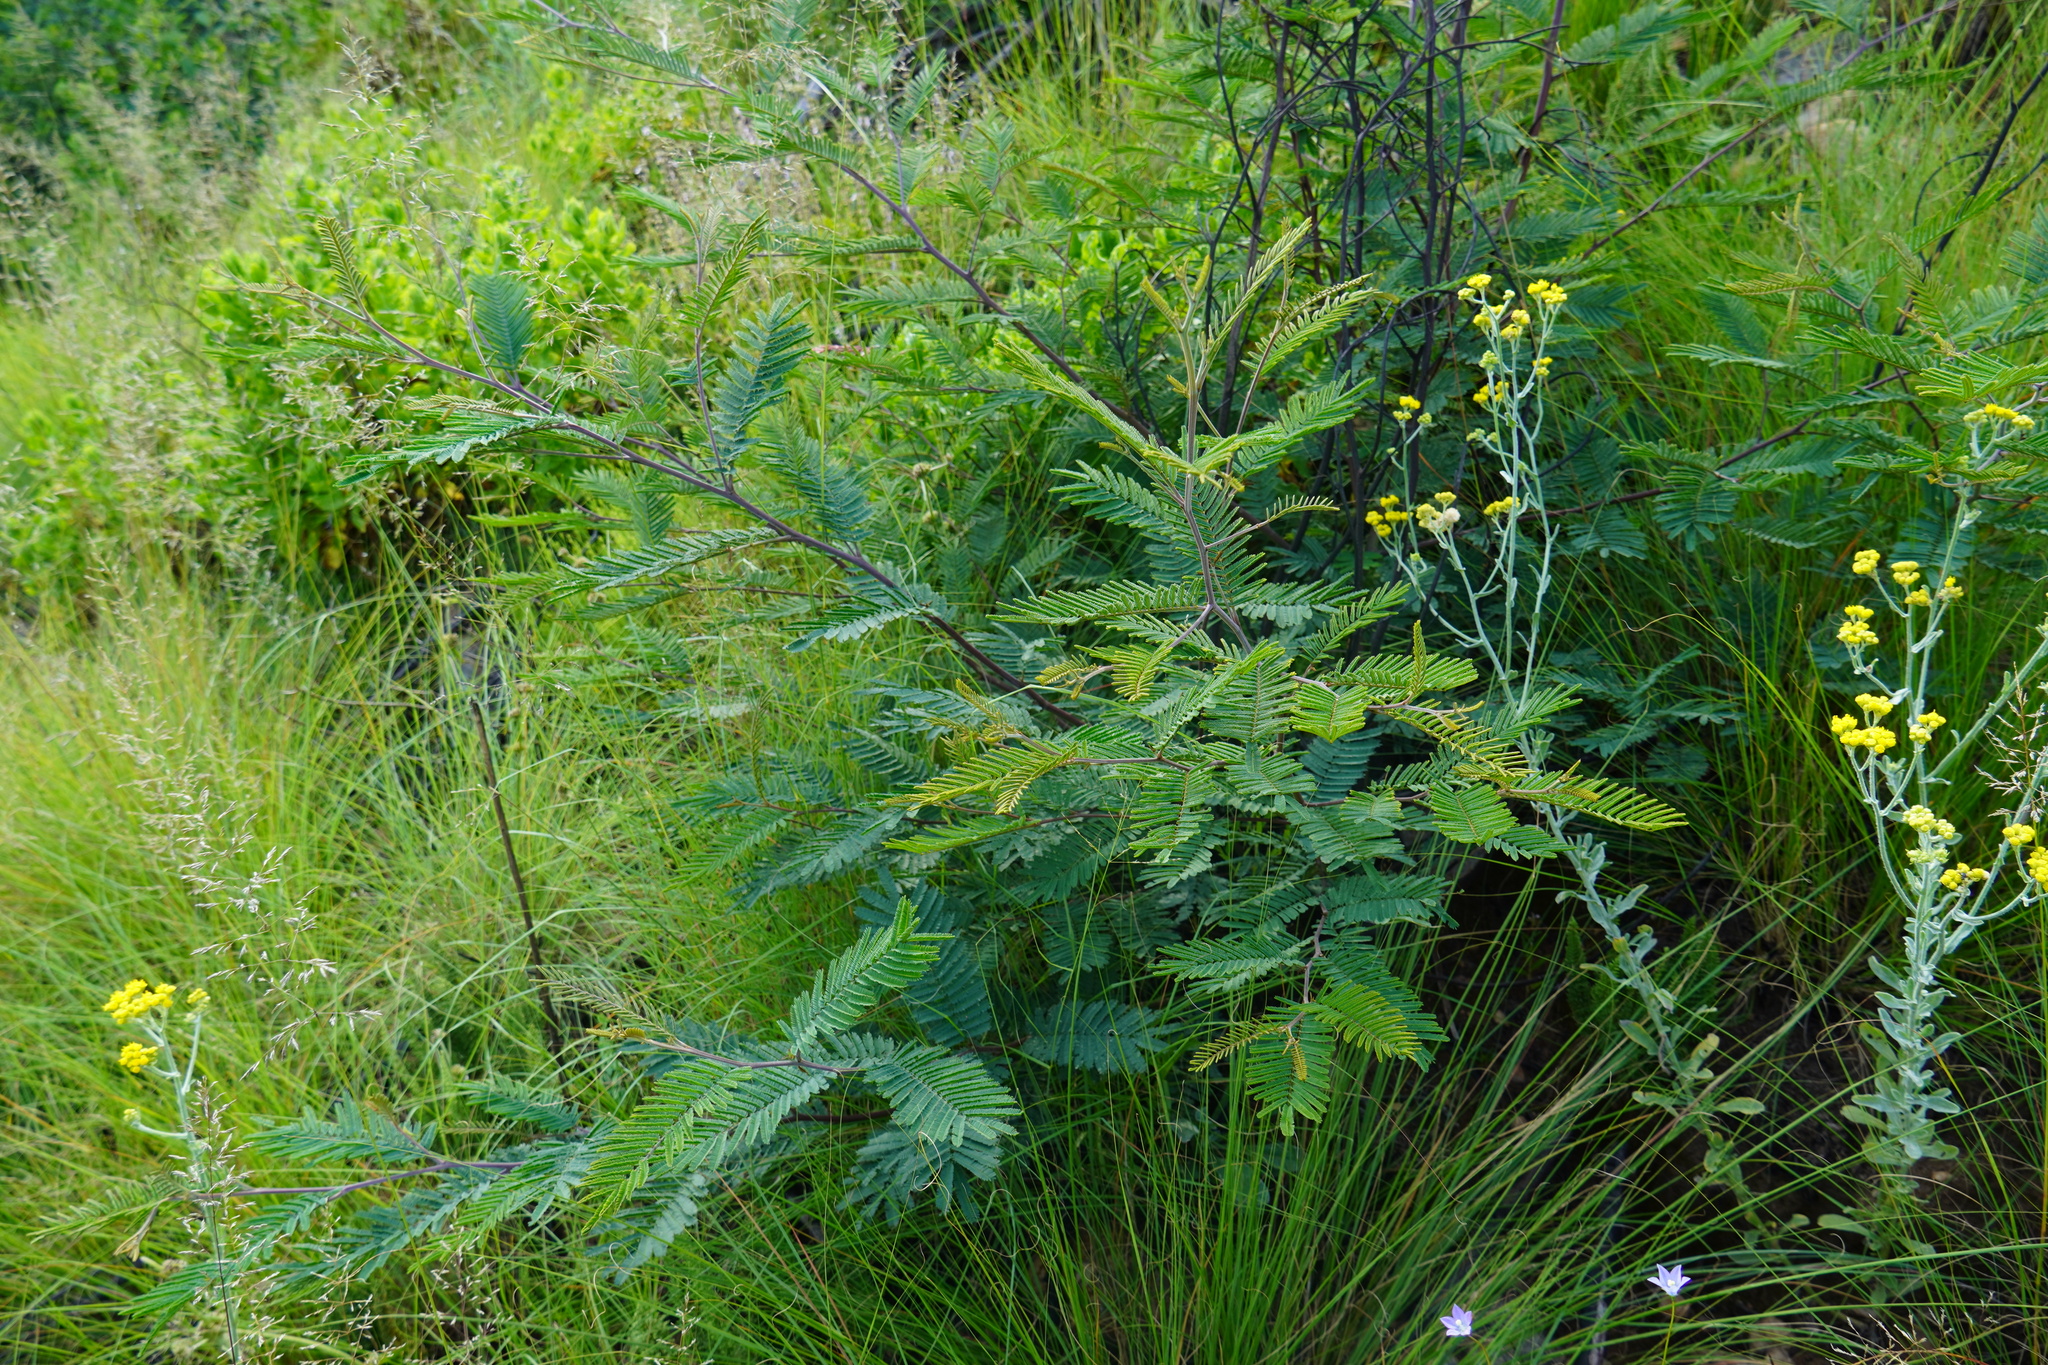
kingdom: Plantae
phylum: Tracheophyta
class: Magnoliopsida
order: Fabales
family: Fabaceae
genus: Acacia
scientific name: Acacia dealbata
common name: Silver wattle
